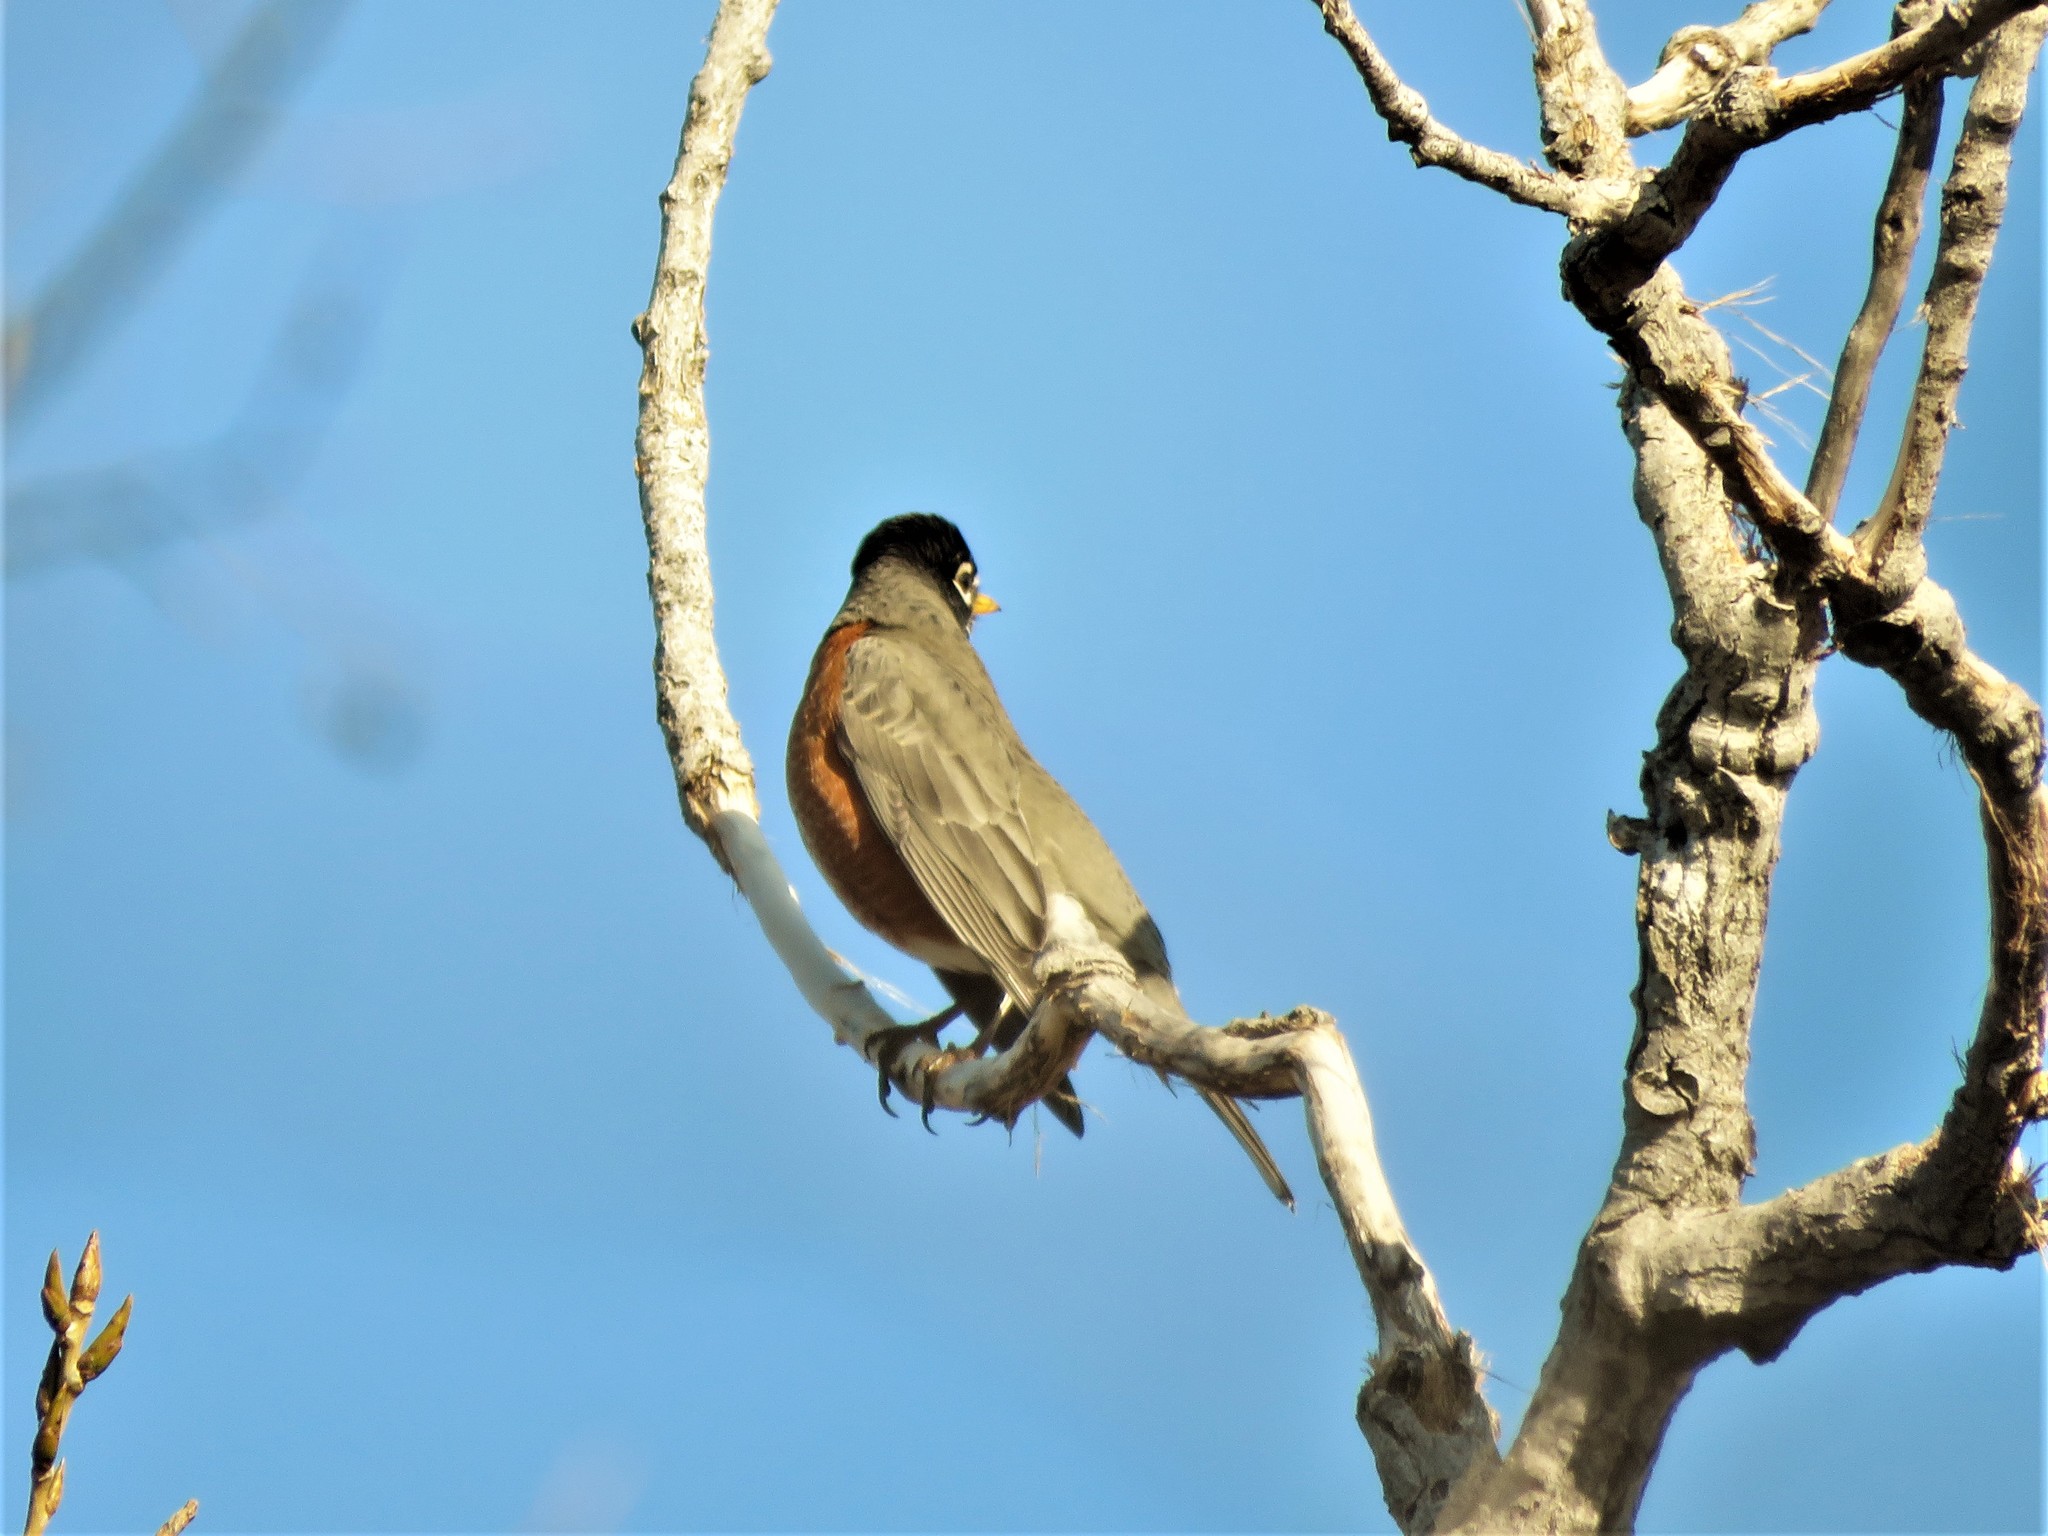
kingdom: Animalia
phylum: Chordata
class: Aves
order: Passeriformes
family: Turdidae
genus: Turdus
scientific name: Turdus migratorius
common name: American robin
